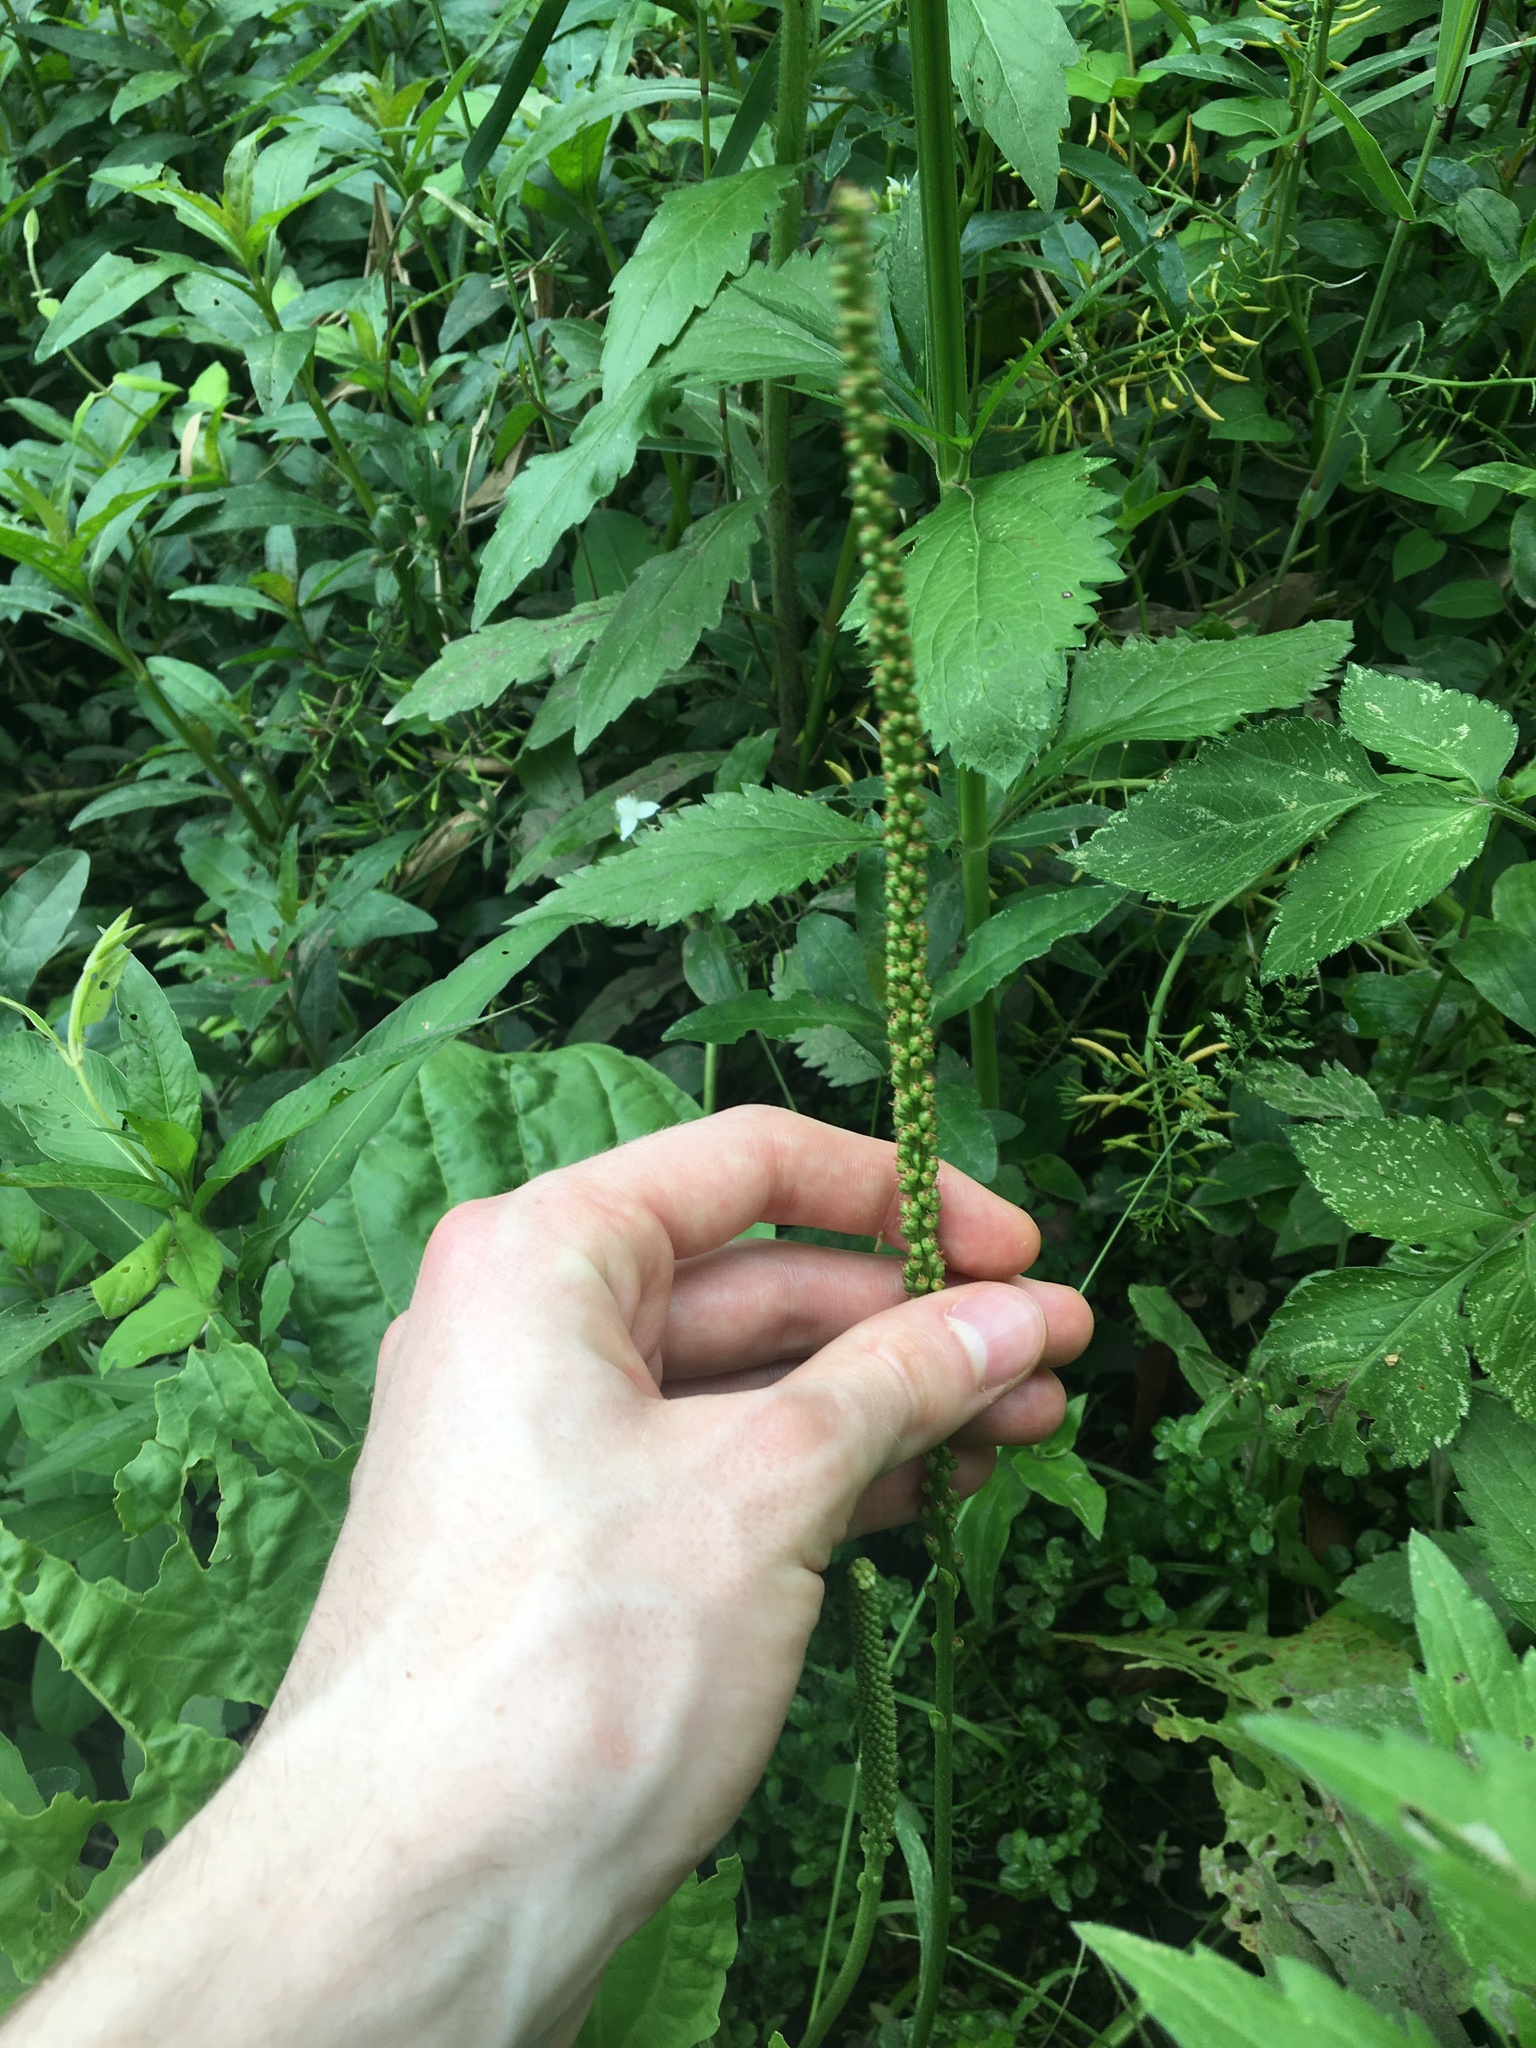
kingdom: Plantae
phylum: Tracheophyta
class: Magnoliopsida
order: Lamiales
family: Plantaginaceae
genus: Plantago
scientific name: Plantago major
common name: Common plantain
